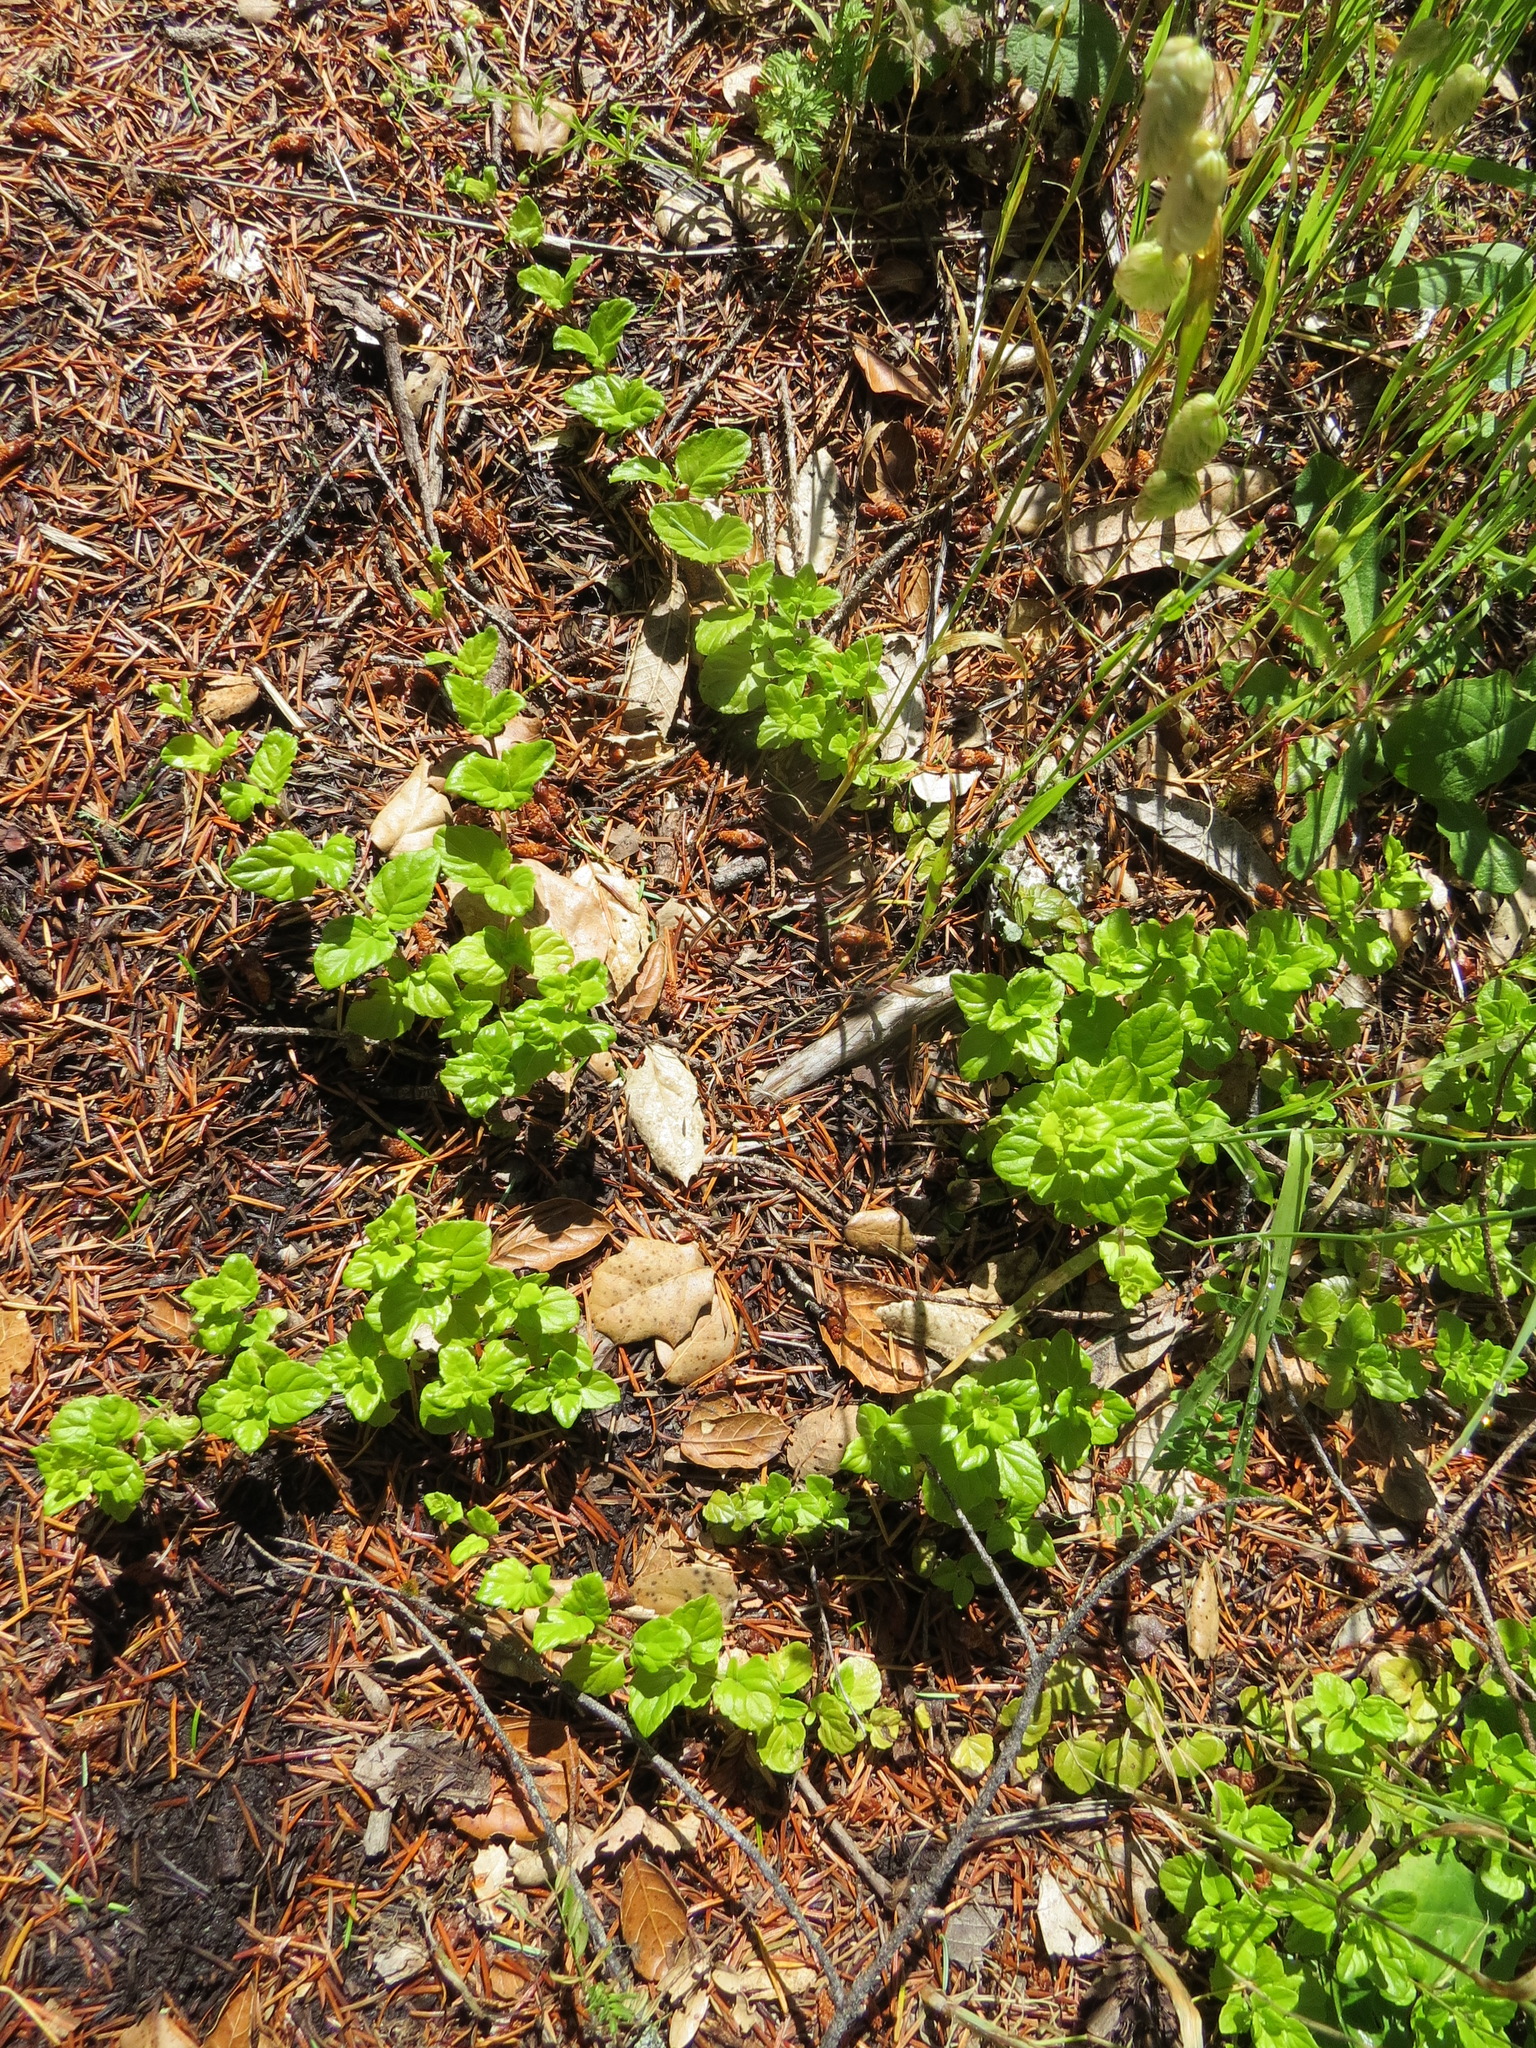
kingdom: Plantae
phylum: Tracheophyta
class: Magnoliopsida
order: Lamiales
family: Lamiaceae
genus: Micromeria
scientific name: Micromeria douglasii
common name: Yerba buena
